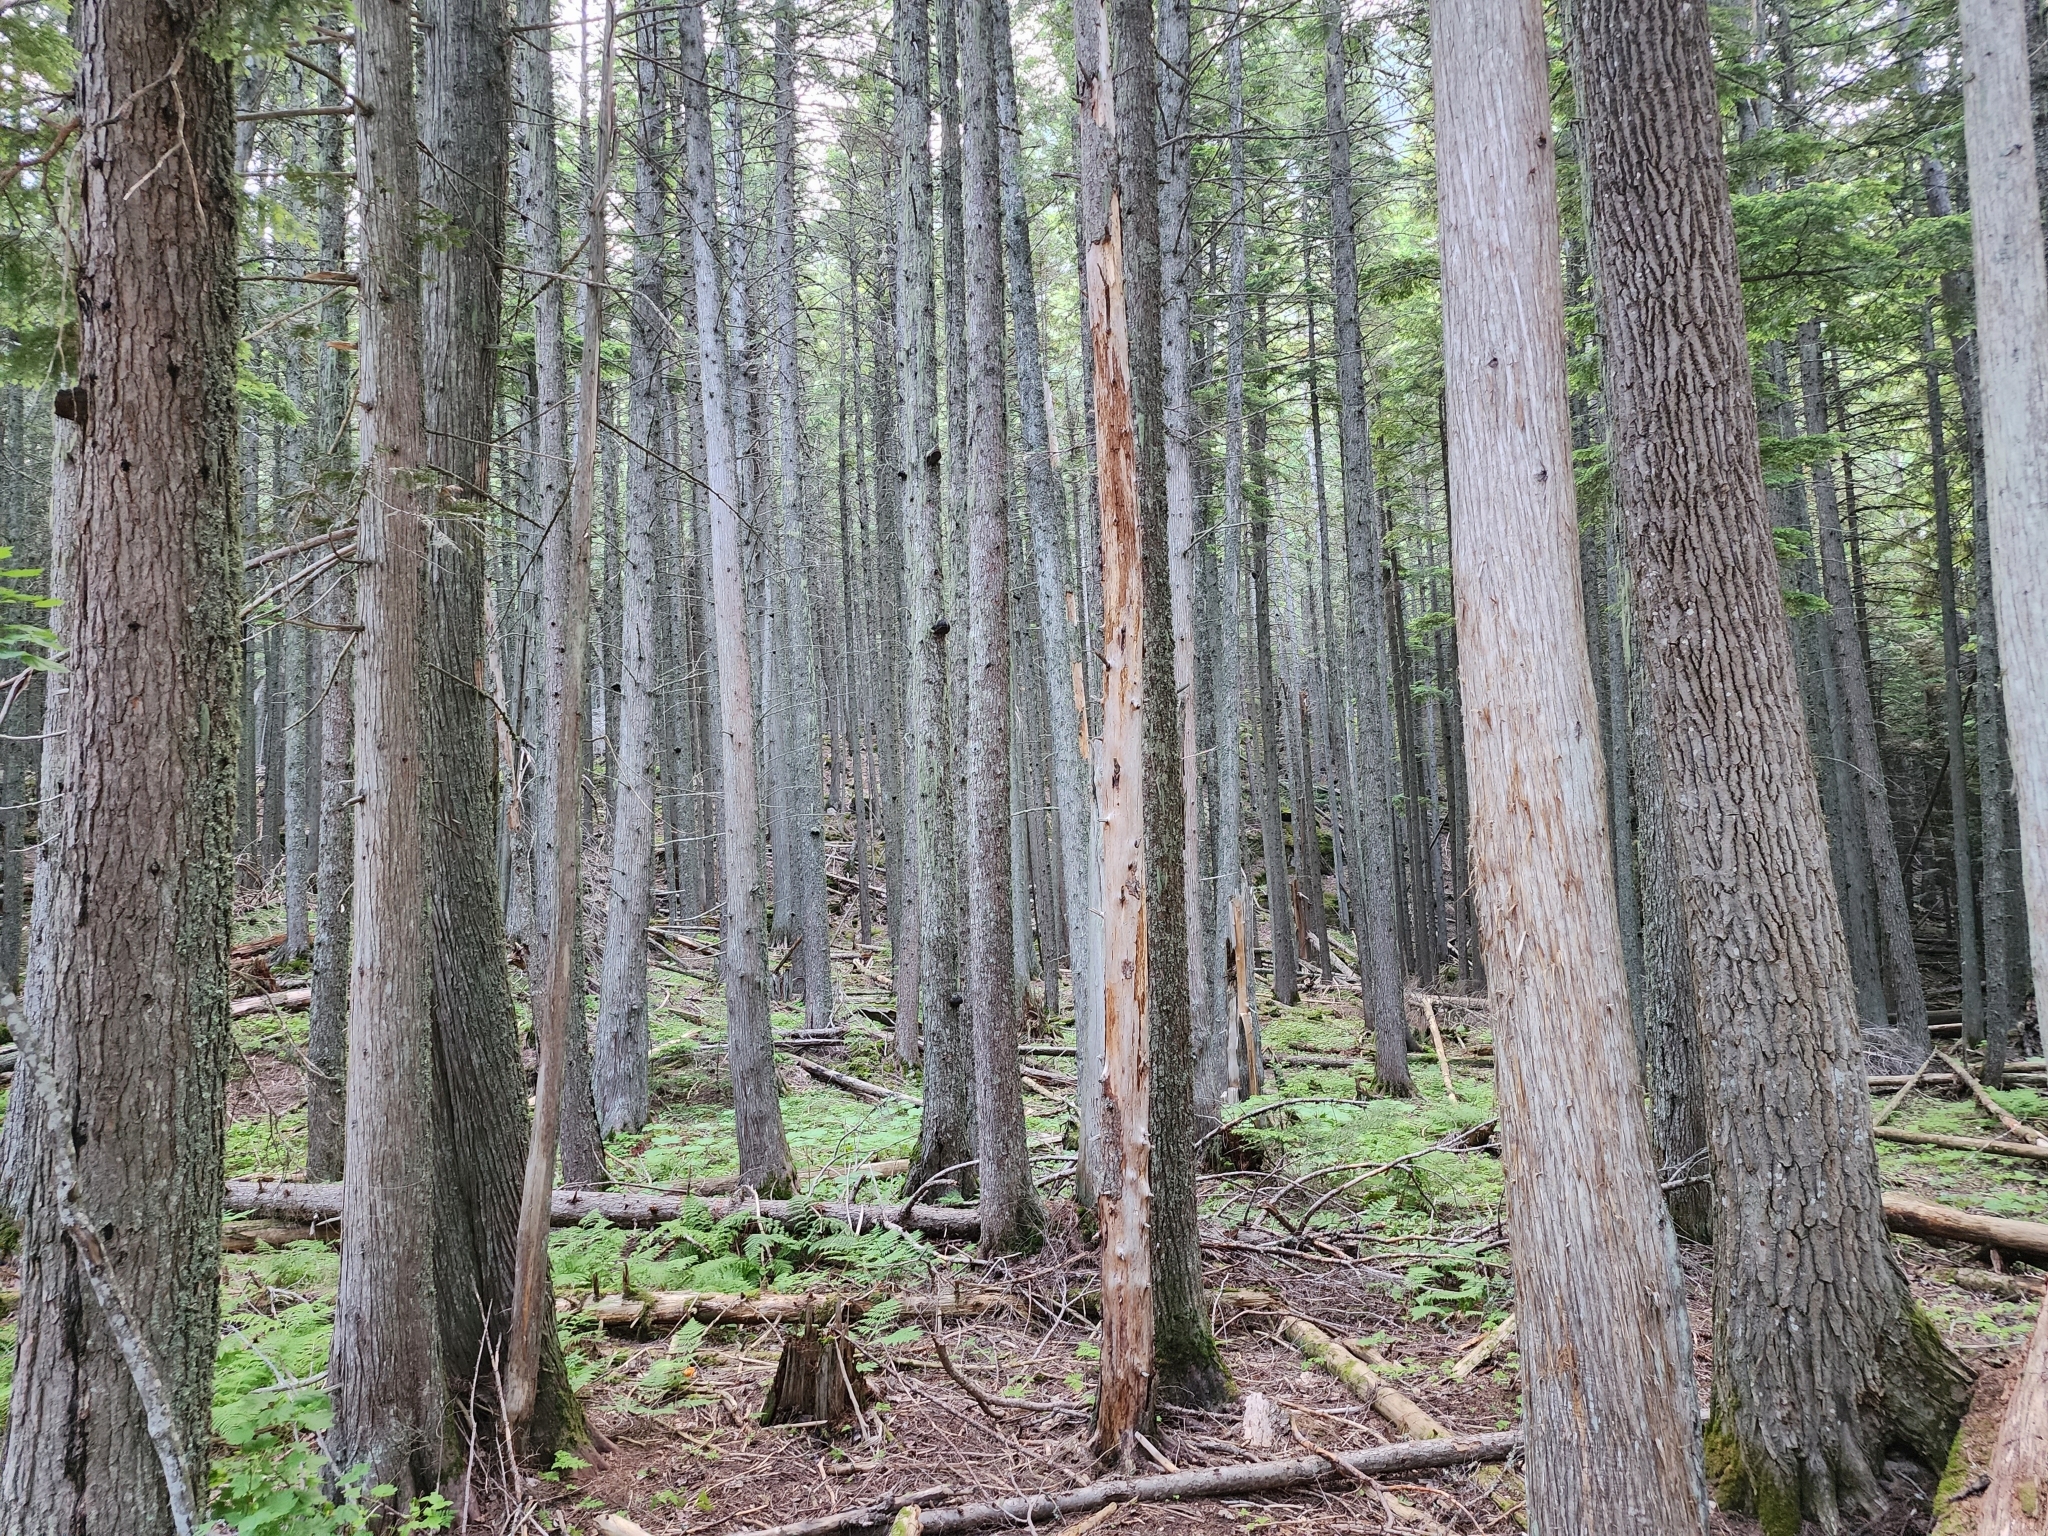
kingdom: Plantae
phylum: Tracheophyta
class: Pinopsida
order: Pinales
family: Cupressaceae
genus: Thuja
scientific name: Thuja plicata
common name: Western red-cedar
